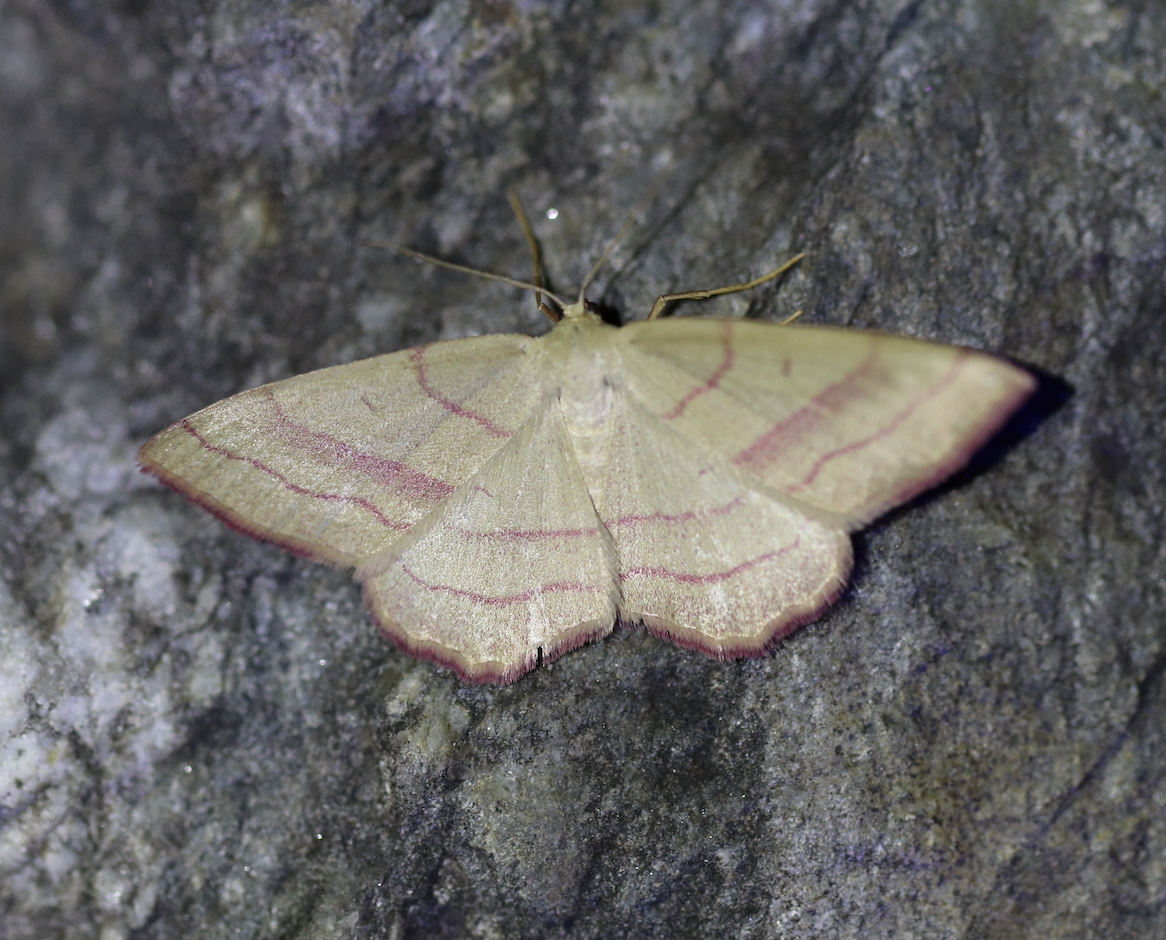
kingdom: Animalia
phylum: Arthropoda
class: Insecta
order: Lepidoptera
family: Geometridae
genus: Rhodostrophia
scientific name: Rhodostrophia vibicaria
